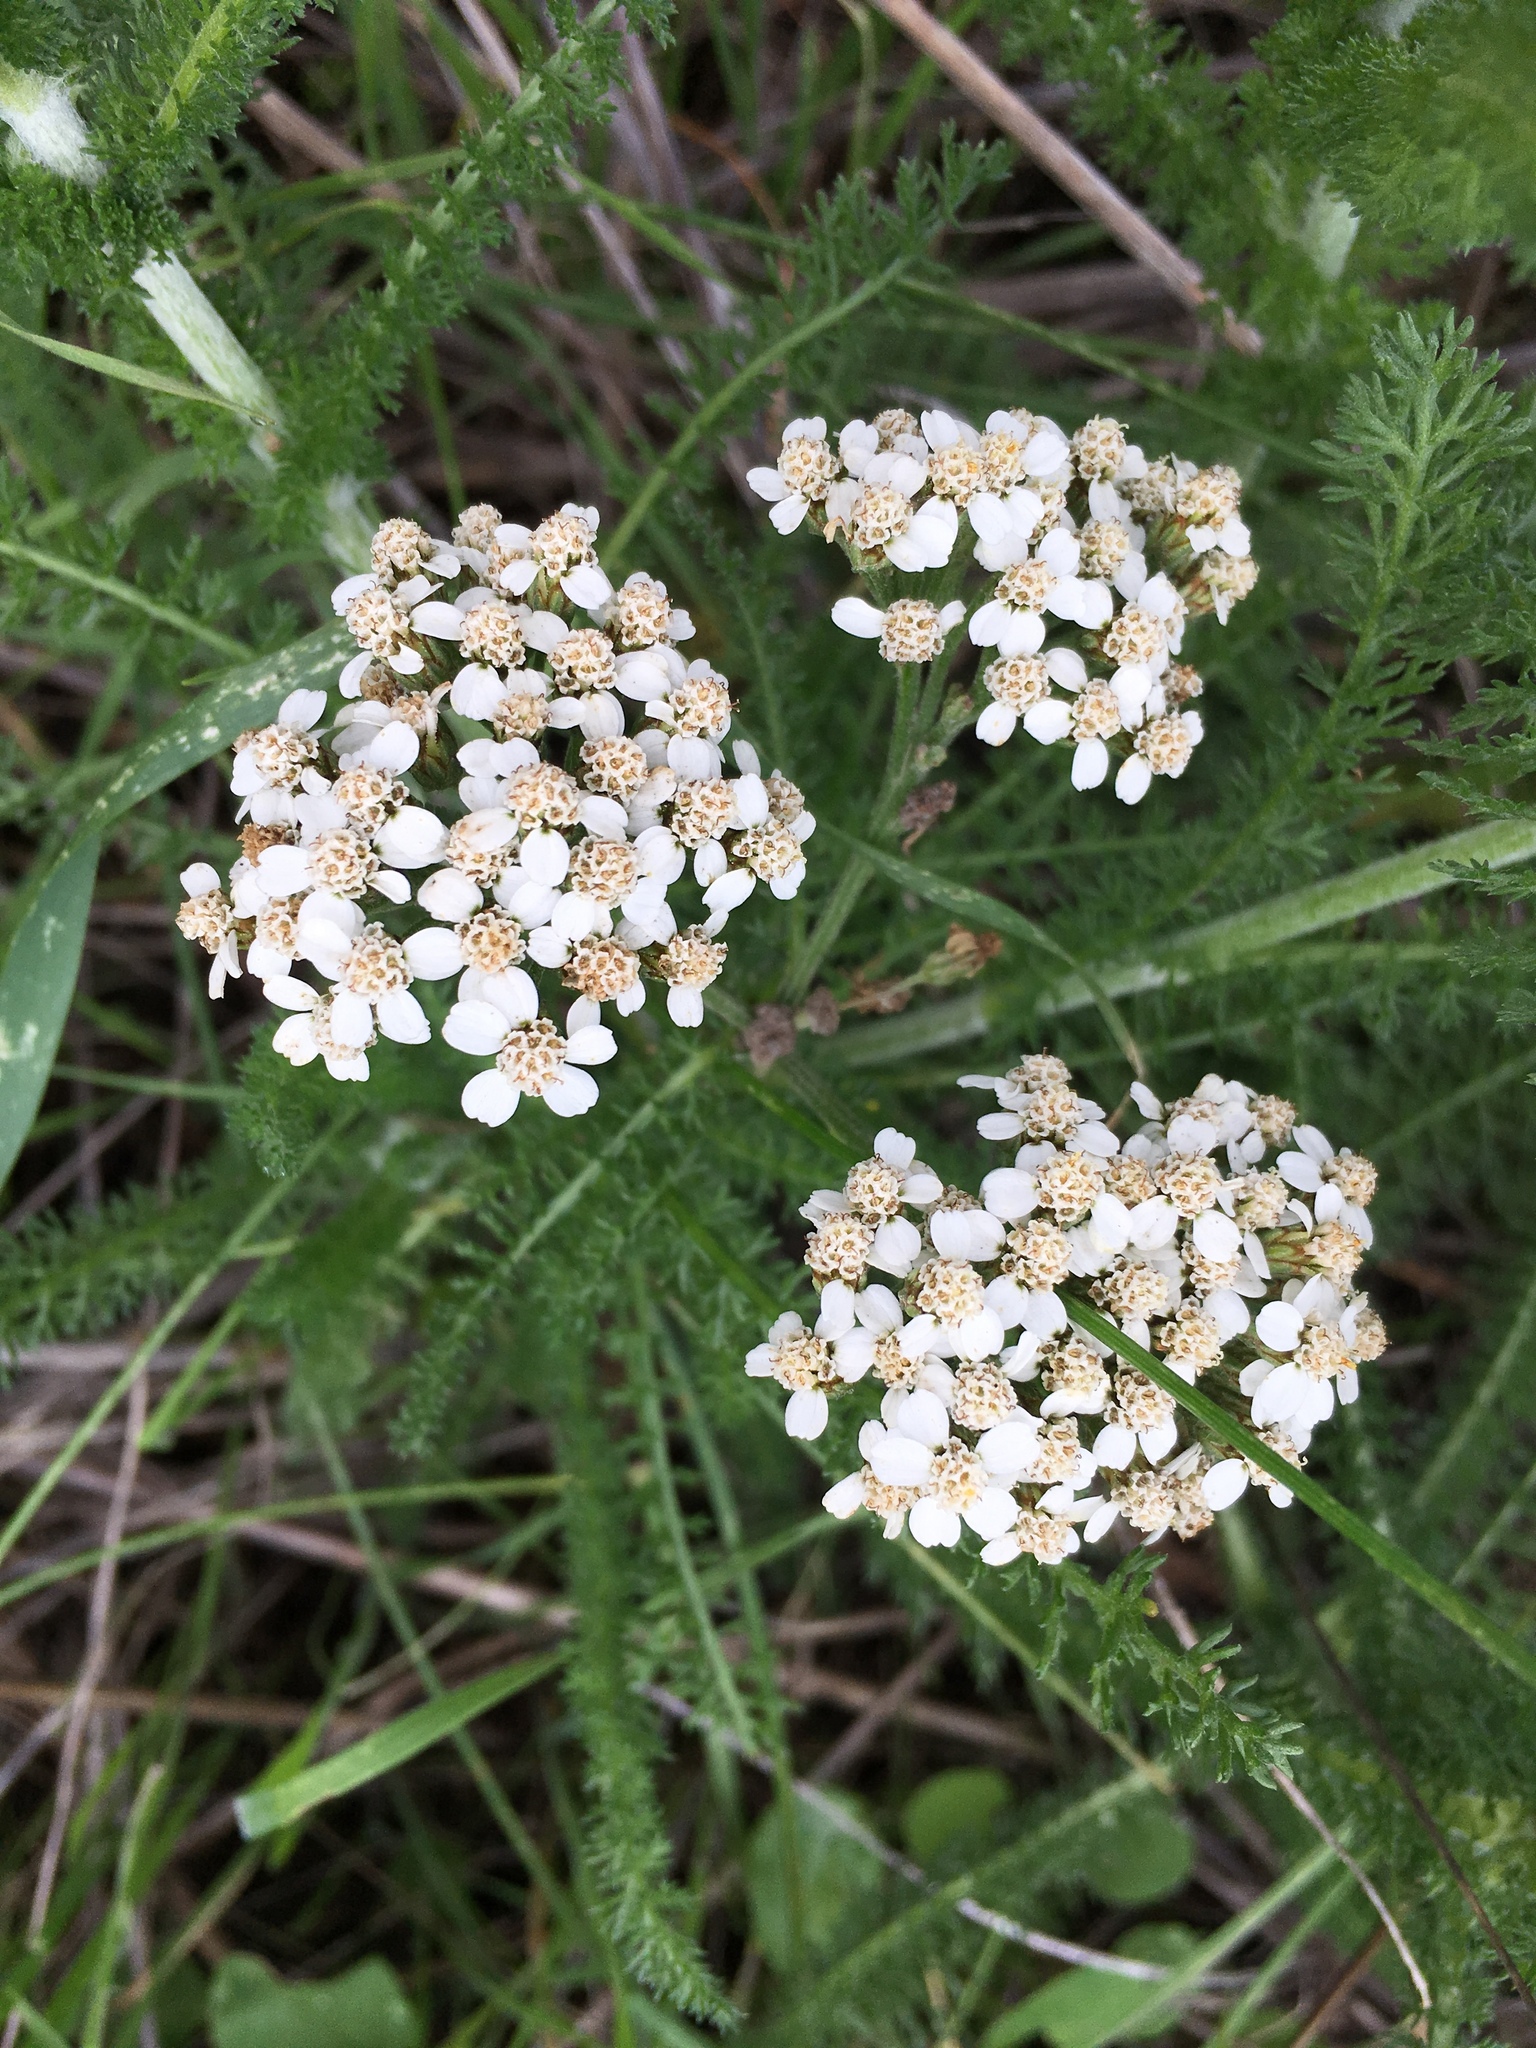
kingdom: Plantae
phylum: Tracheophyta
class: Magnoliopsida
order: Asterales
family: Asteraceae
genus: Achillea
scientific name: Achillea millefolium
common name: Yarrow
